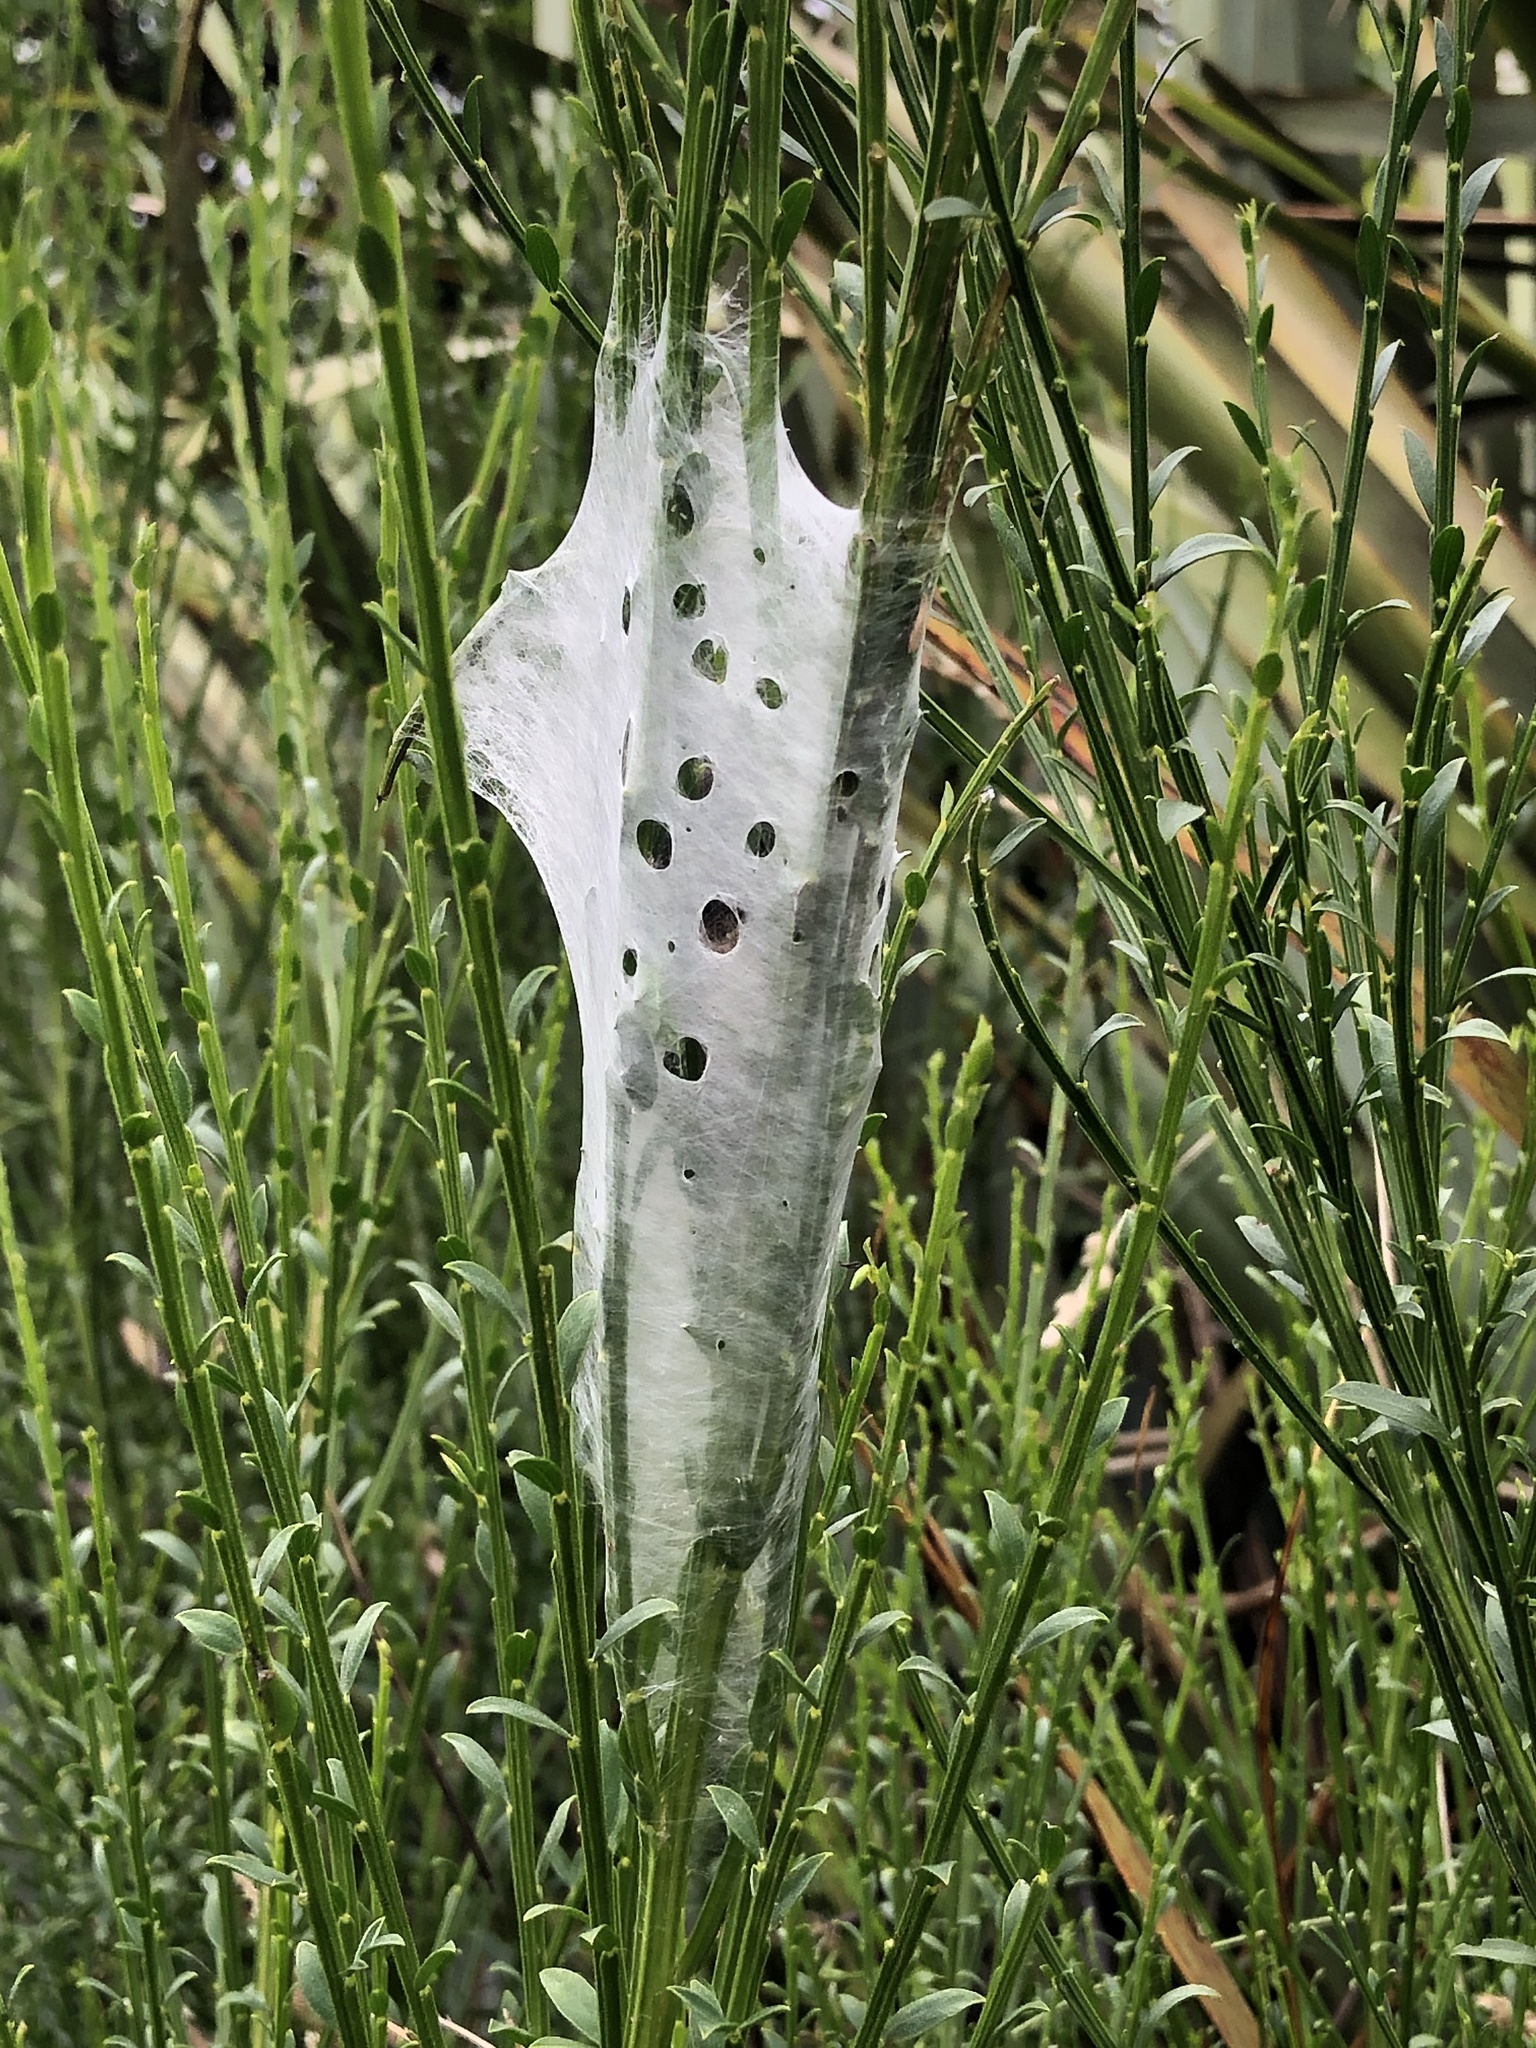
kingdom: Animalia
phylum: Arthropoda
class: Arachnida
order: Araneae
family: Pisauridae
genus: Dolomedes
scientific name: Dolomedes minor
